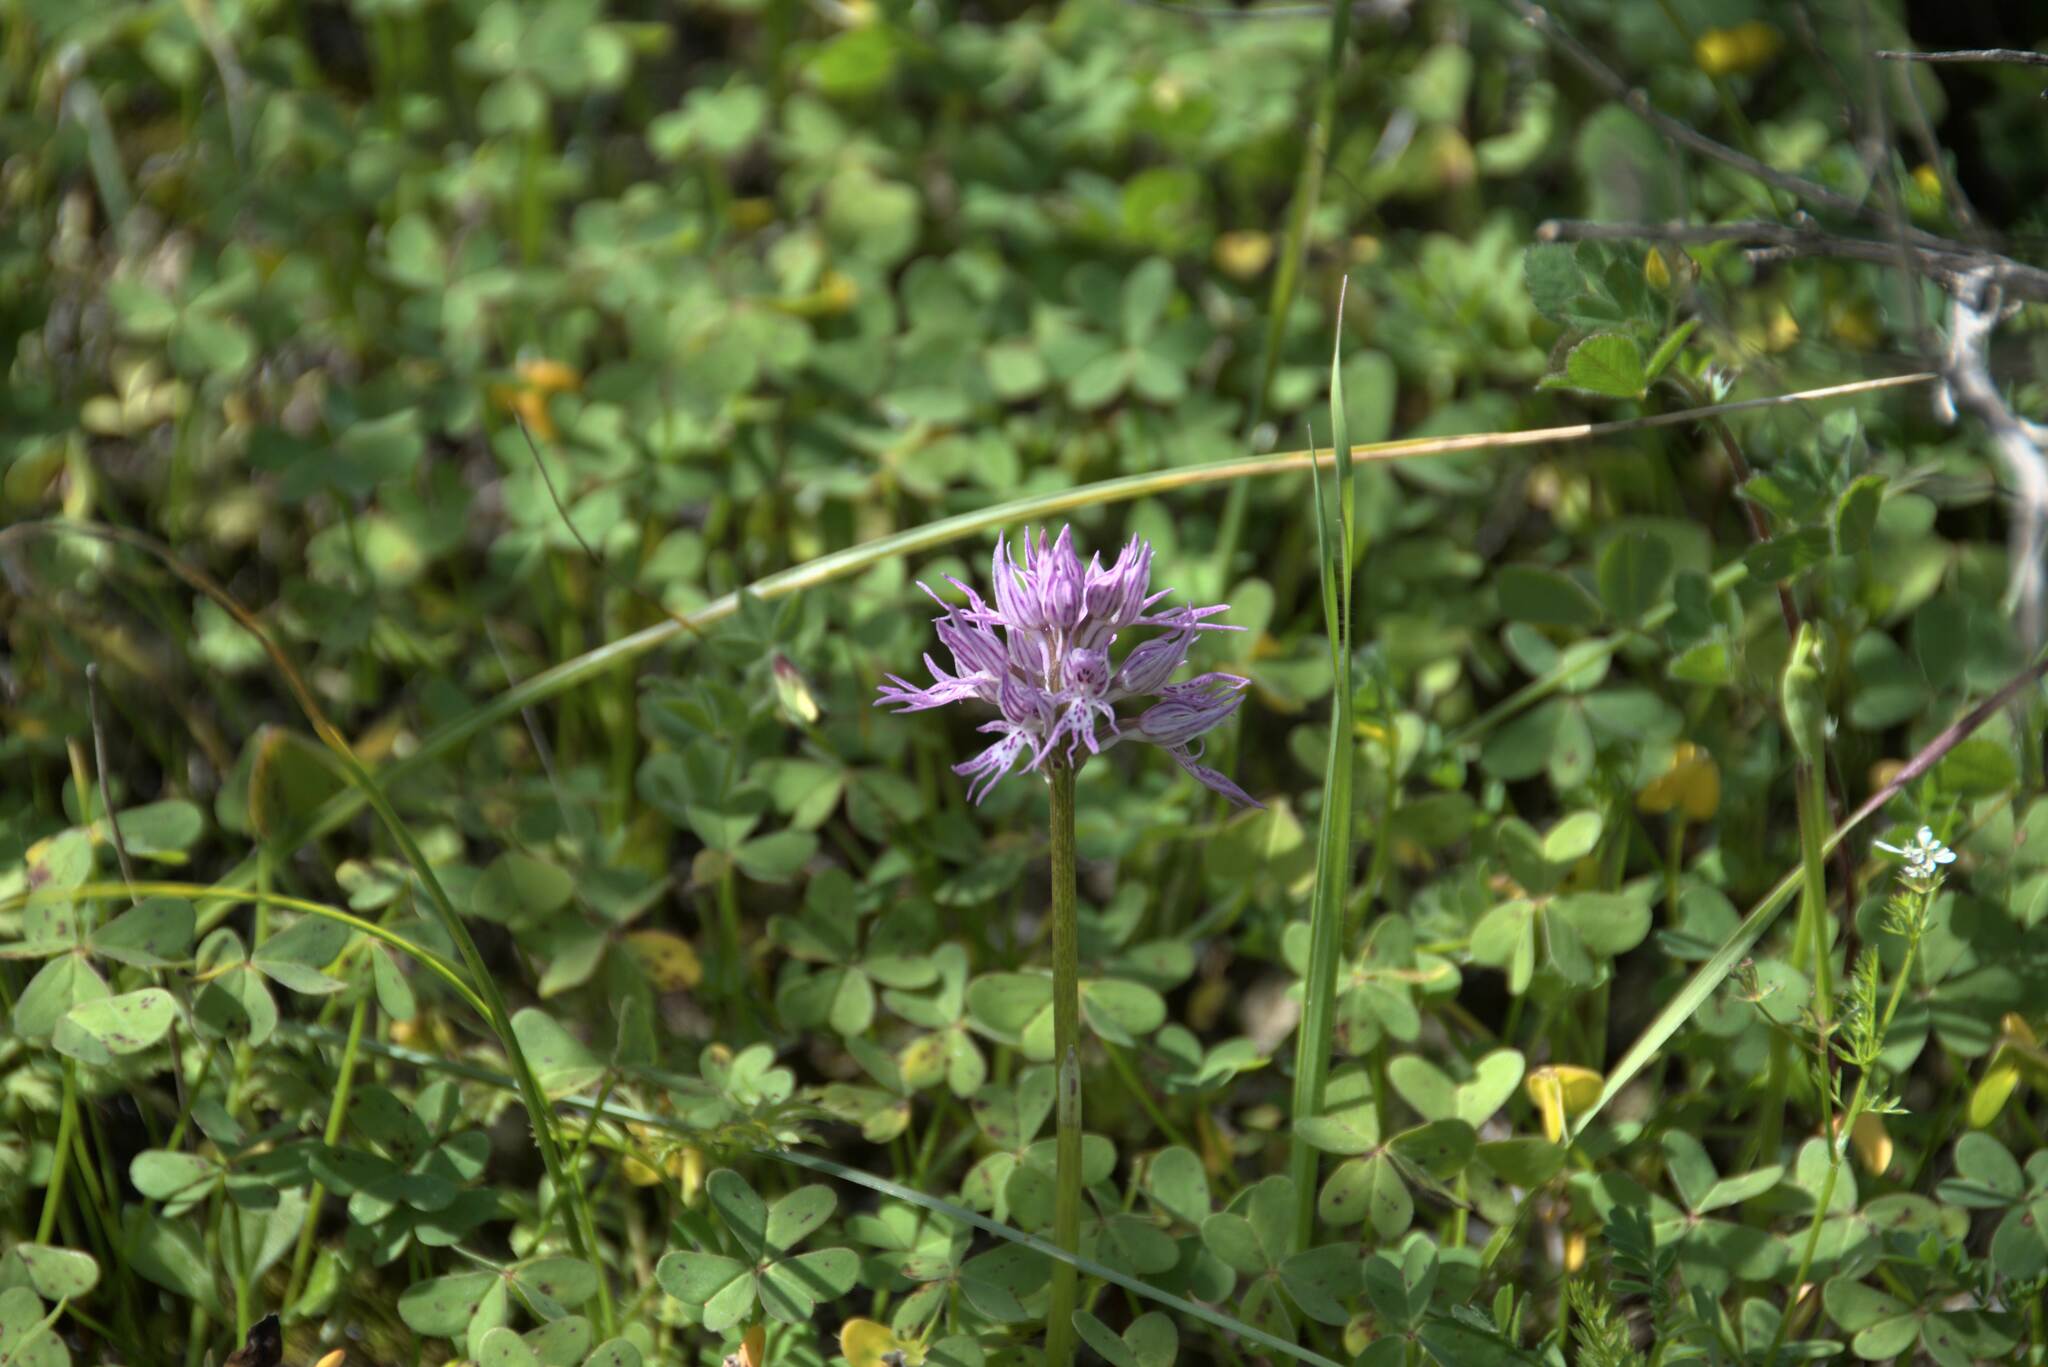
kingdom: Plantae
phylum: Tracheophyta
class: Liliopsida
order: Asparagales
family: Orchidaceae
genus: Orchis
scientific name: Orchis italica
